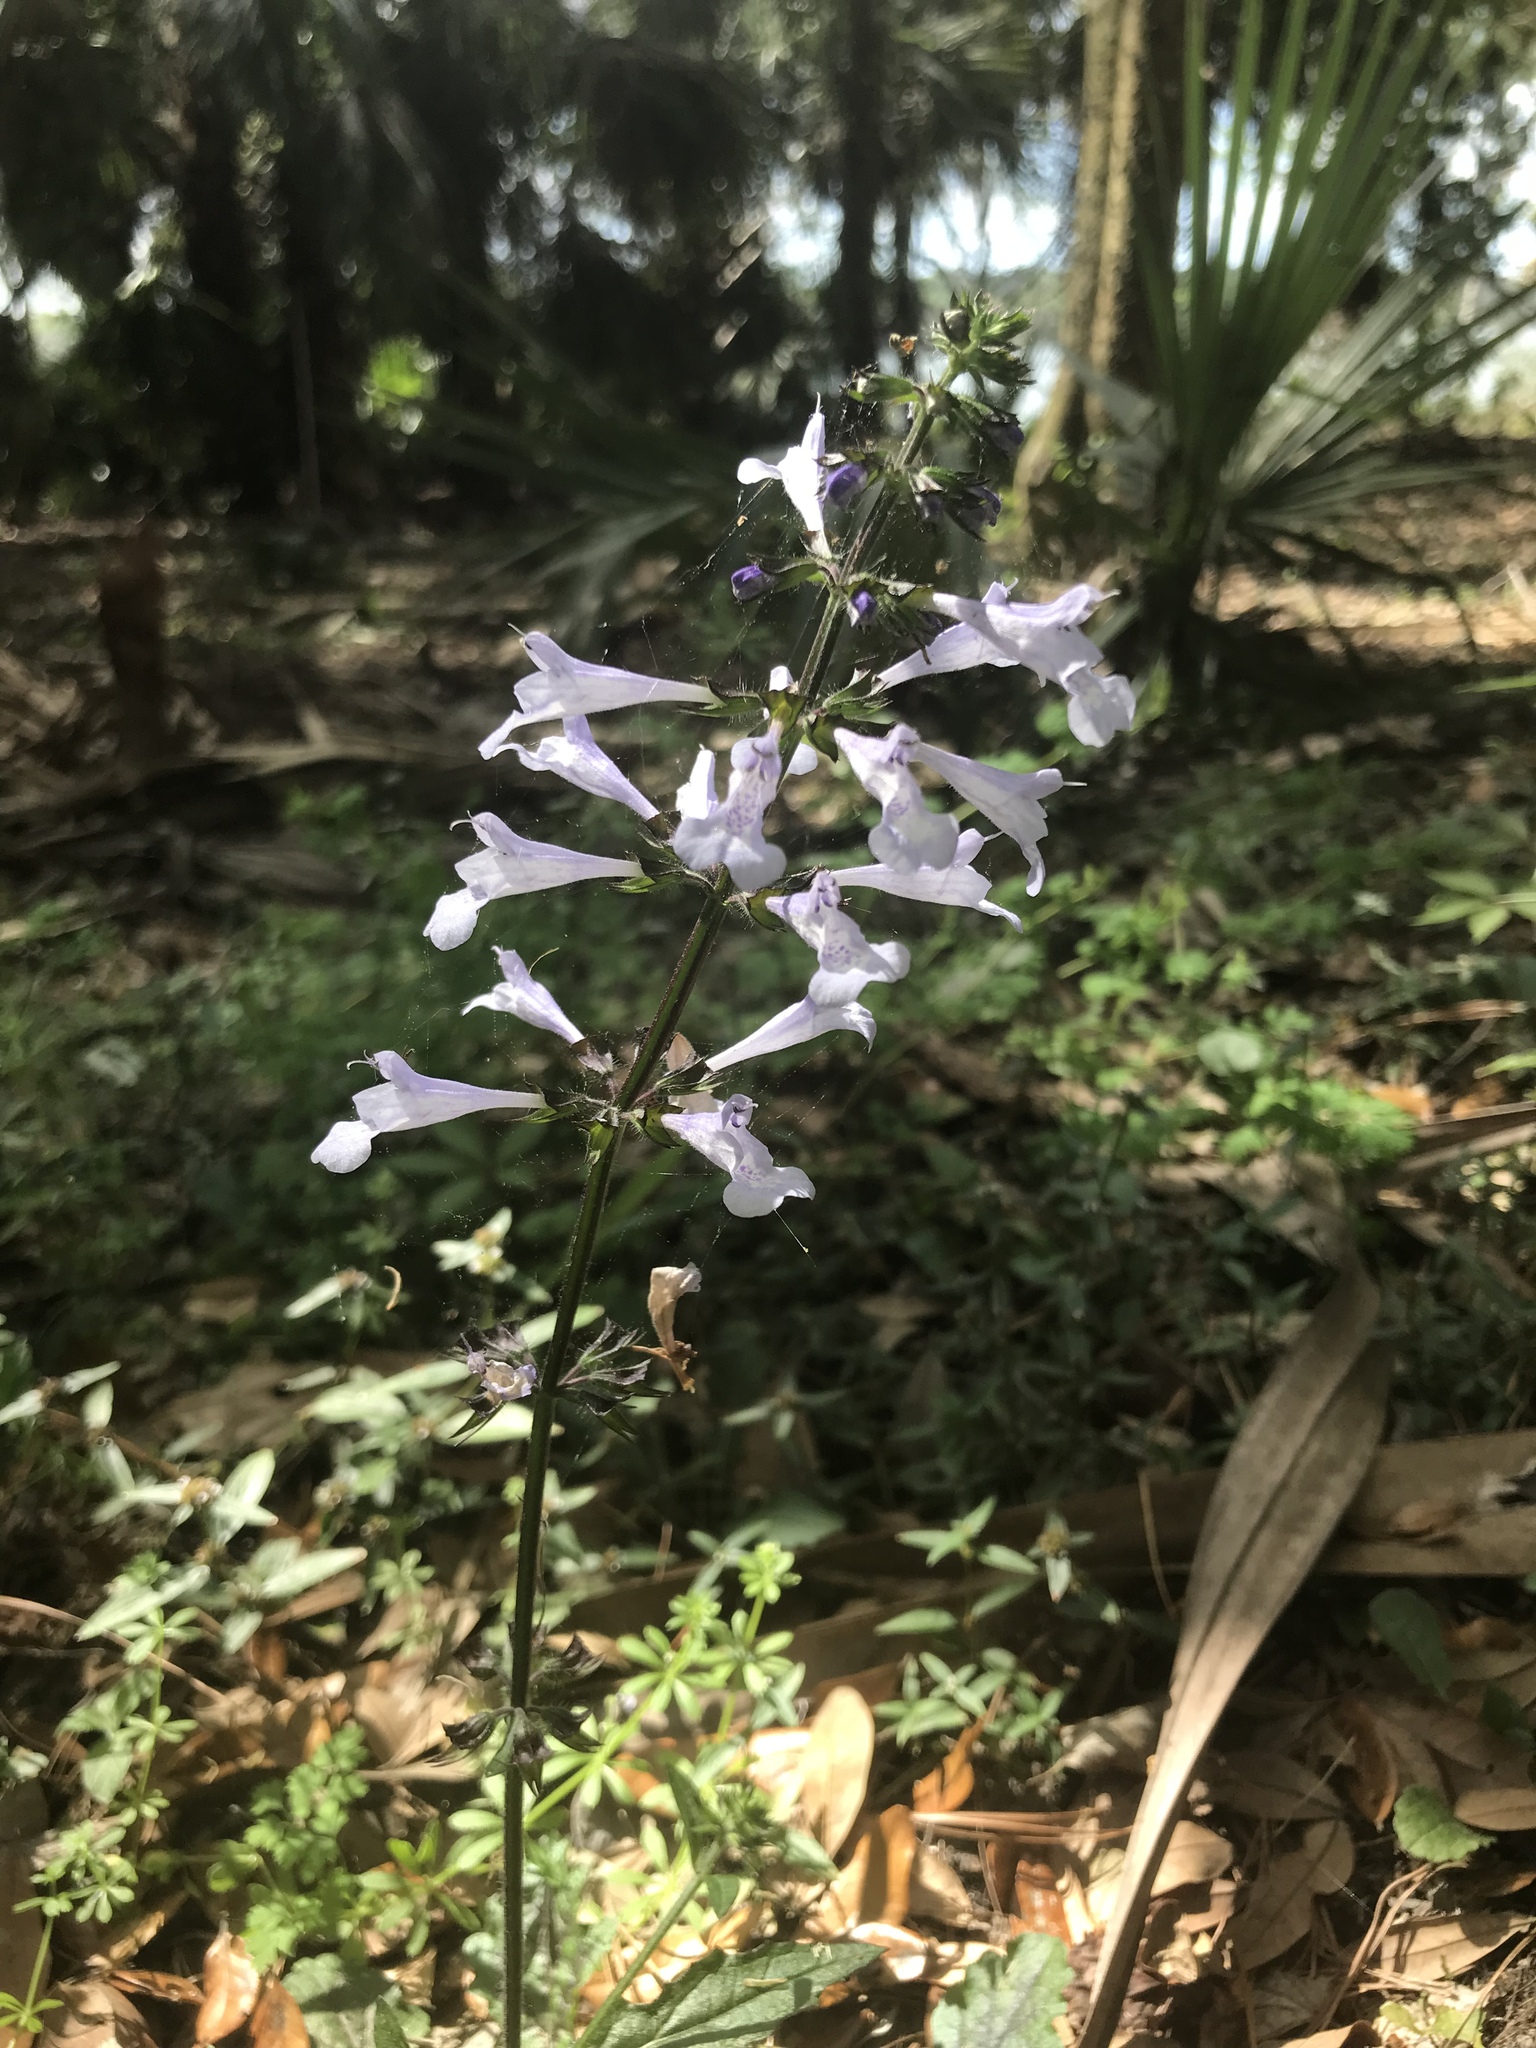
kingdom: Plantae
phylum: Tracheophyta
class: Magnoliopsida
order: Lamiales
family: Lamiaceae
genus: Salvia
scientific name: Salvia lyrata
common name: Cancerweed
